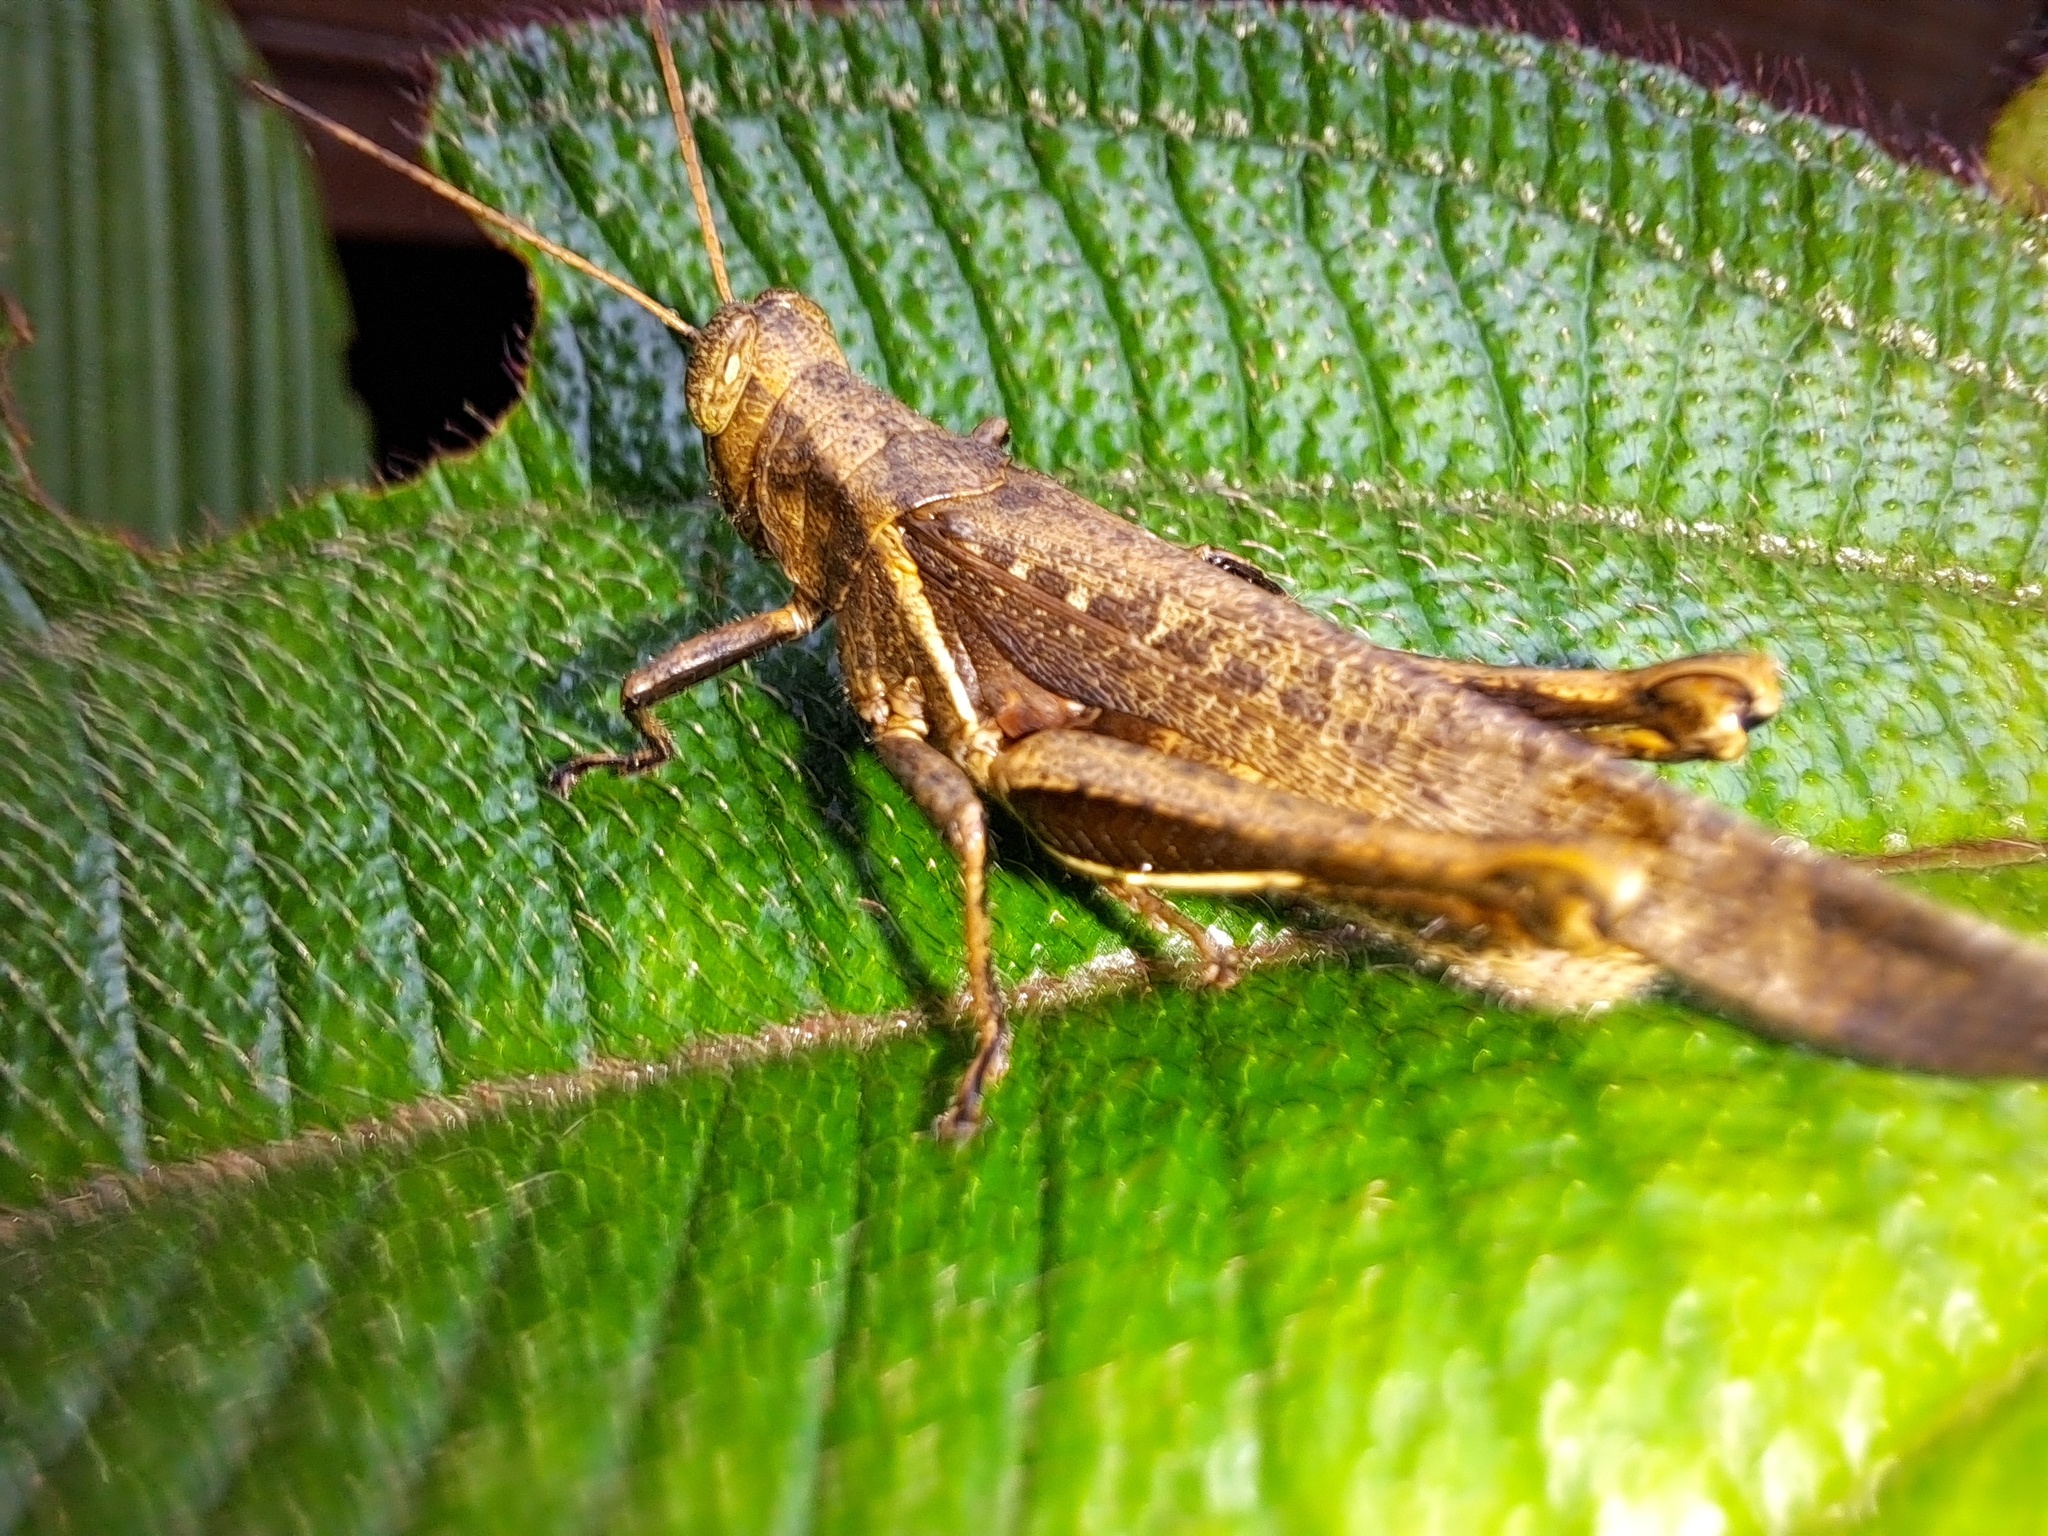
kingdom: Animalia
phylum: Arthropoda
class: Insecta
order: Orthoptera
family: Acrididae
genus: Abracris
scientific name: Abracris flavolineata
